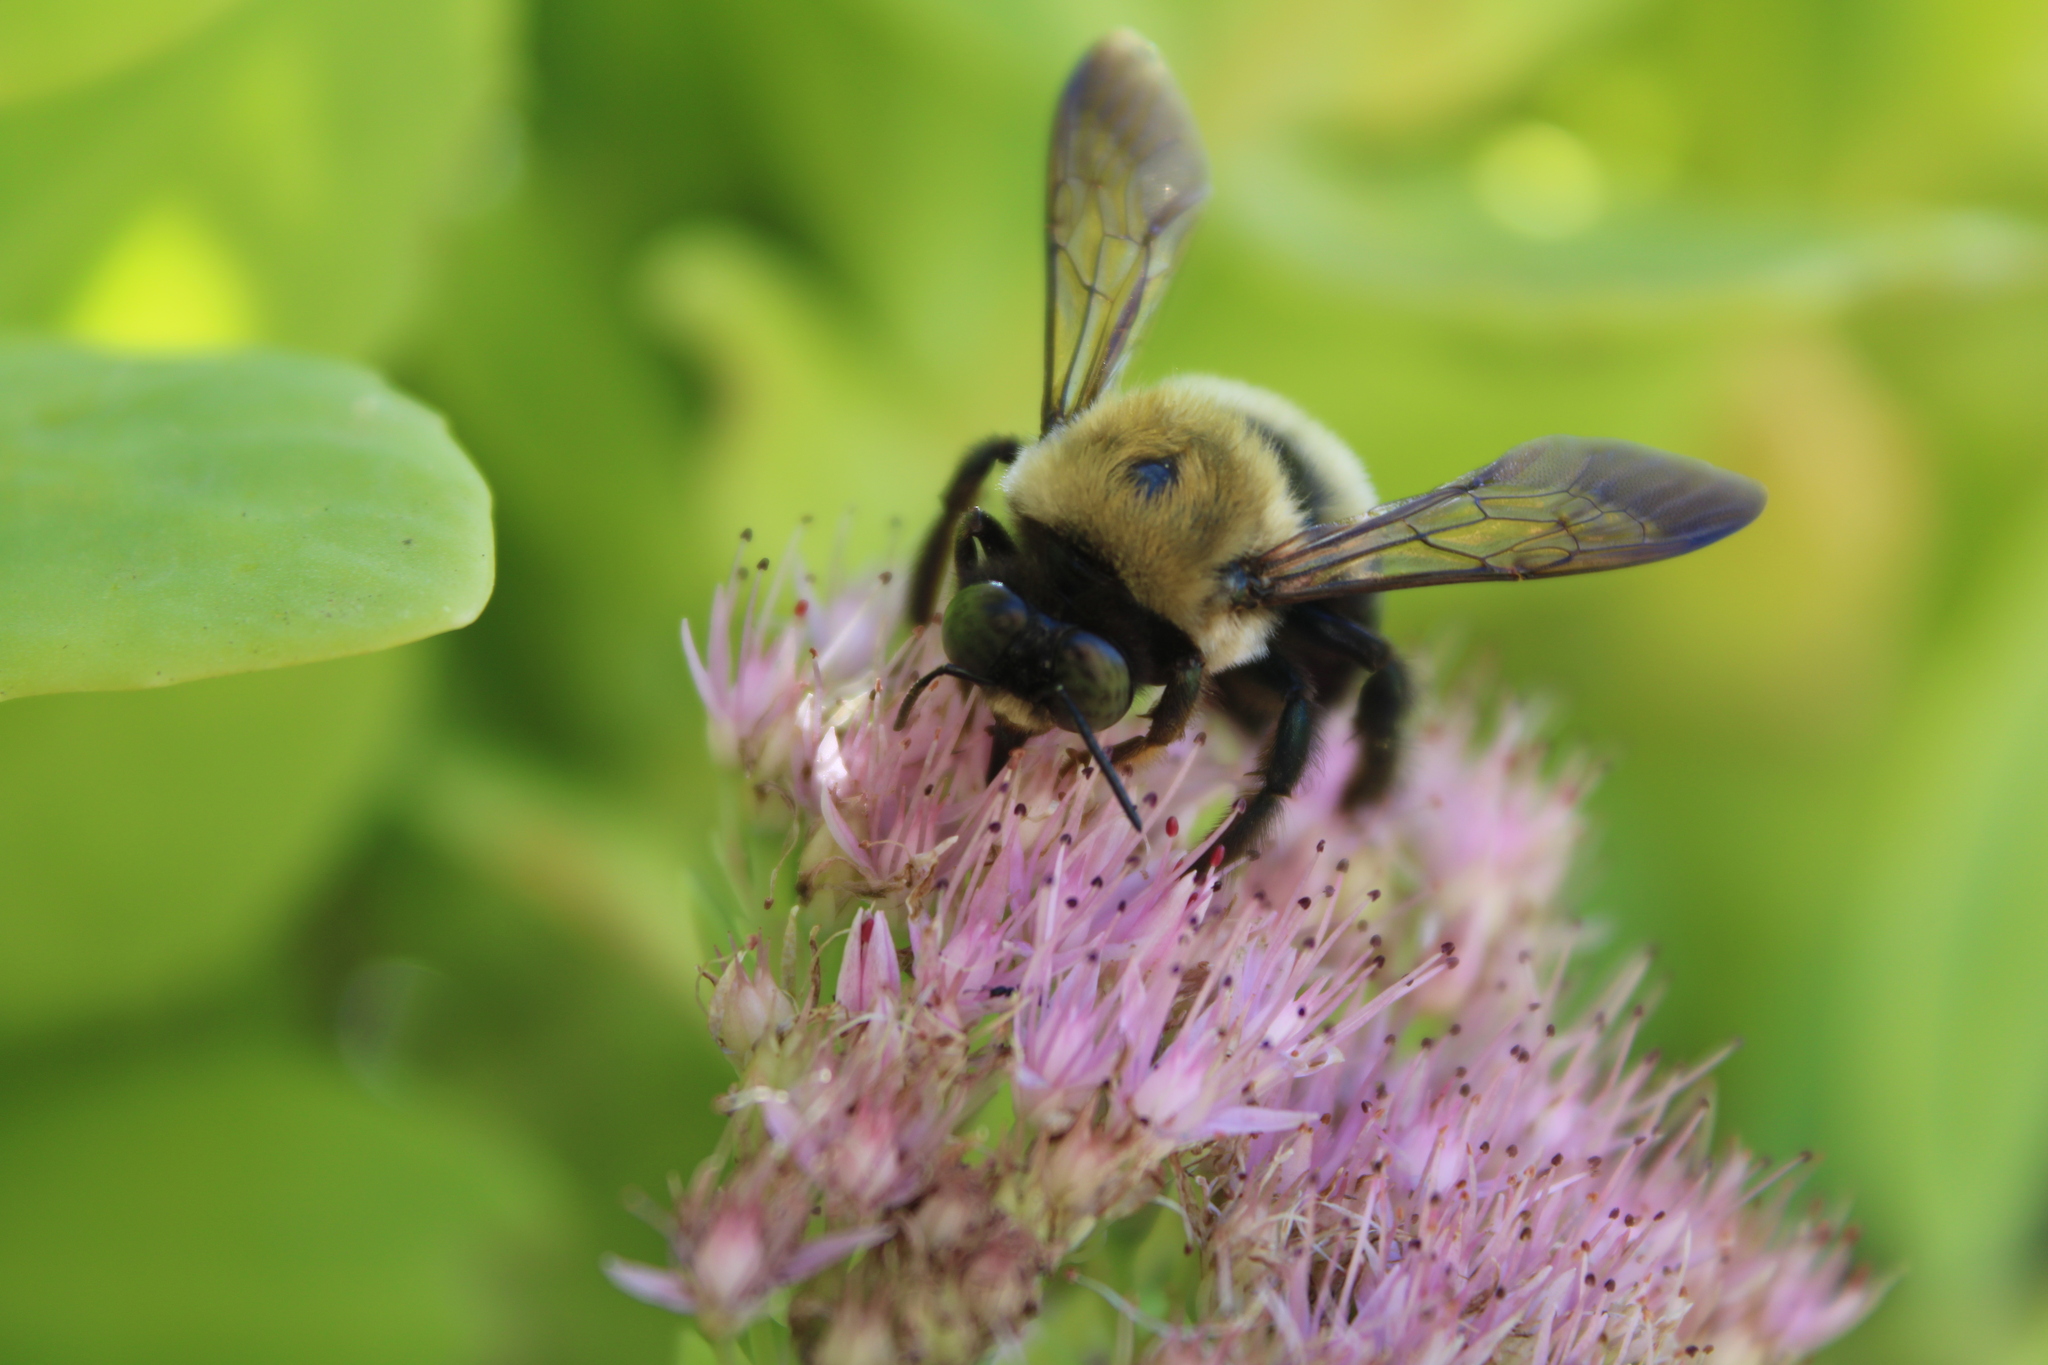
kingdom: Animalia
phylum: Arthropoda
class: Insecta
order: Hymenoptera
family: Apidae
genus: Xylocopa
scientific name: Xylocopa virginica
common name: Carpenter bee
